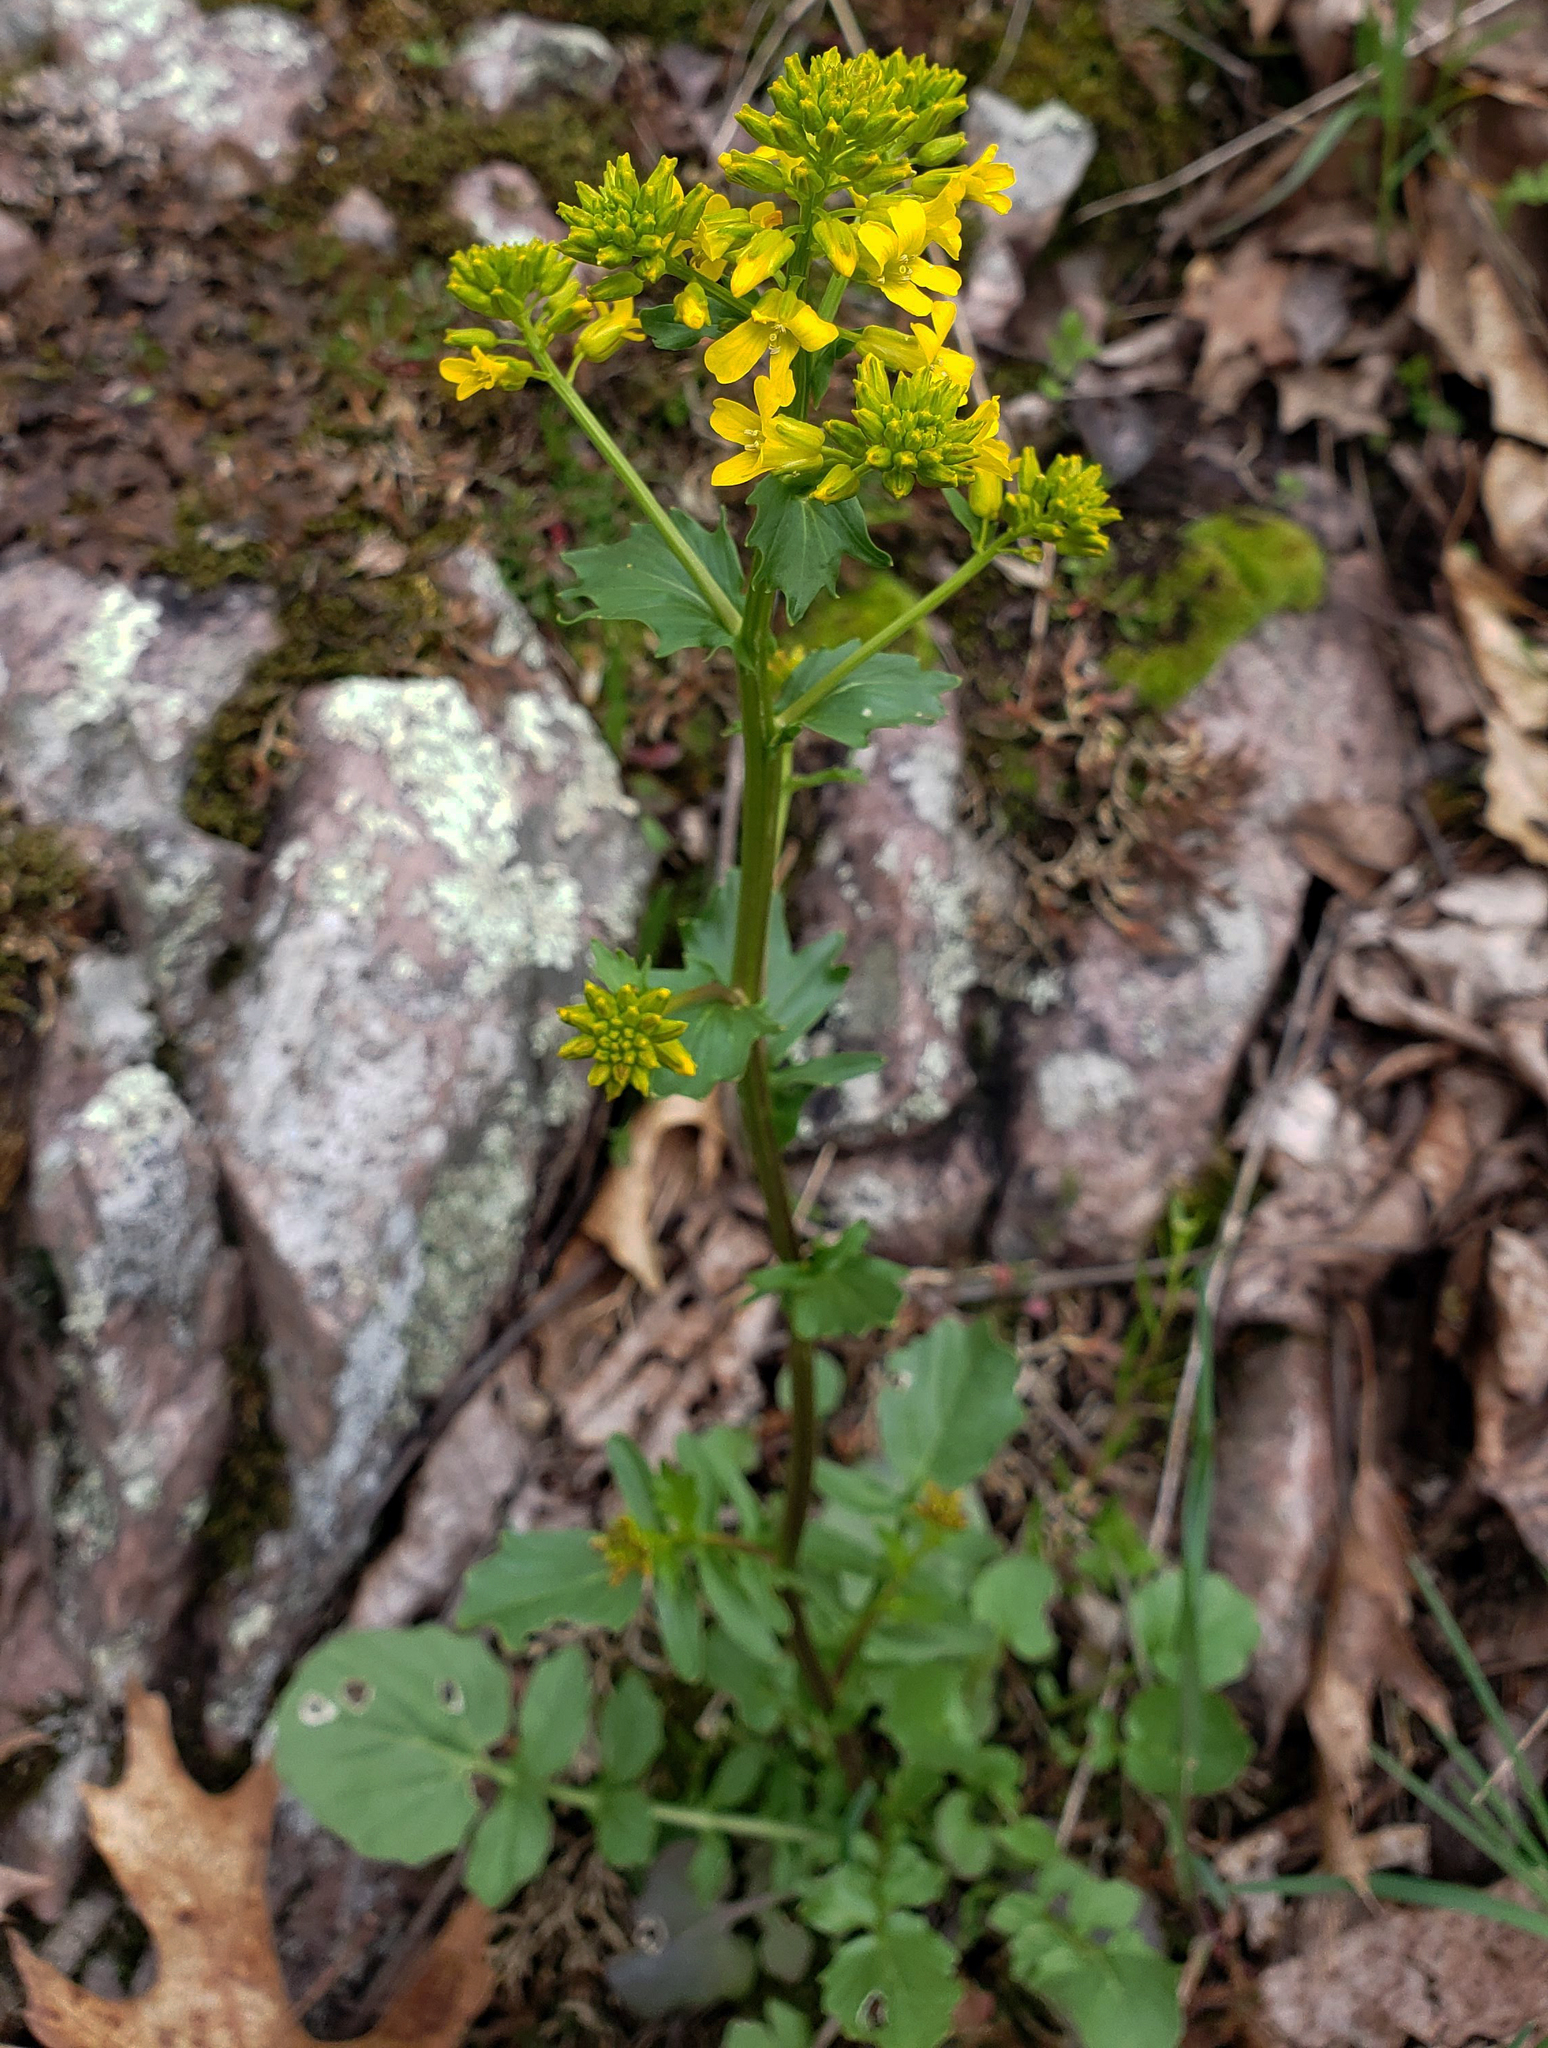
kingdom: Plantae
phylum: Tracheophyta
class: Magnoliopsida
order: Brassicales
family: Brassicaceae
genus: Barbarea
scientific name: Barbarea vulgaris
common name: Cressy-greens
